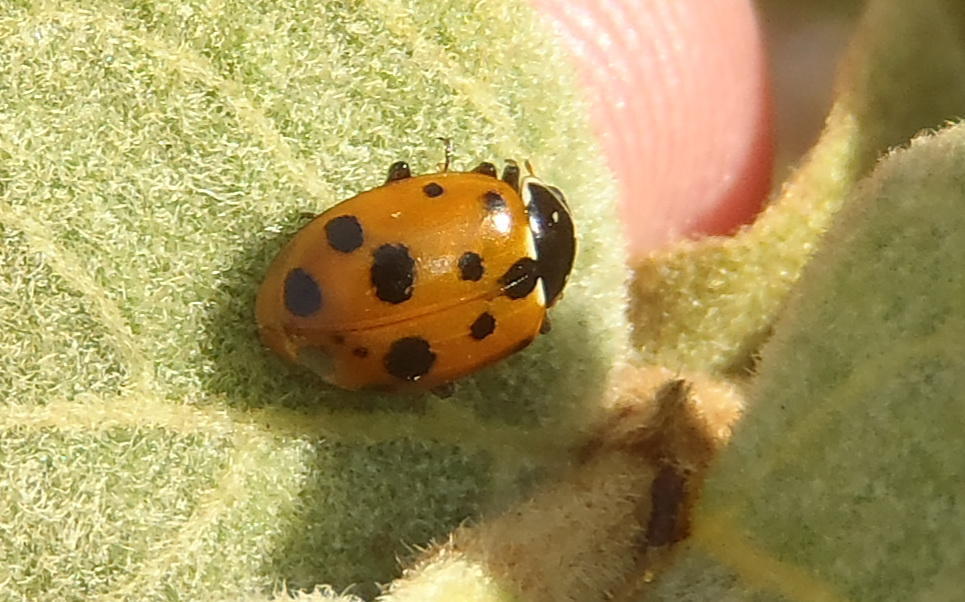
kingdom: Animalia
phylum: Arthropoda
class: Insecta
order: Coleoptera
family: Coccinellidae
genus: Hippodamia
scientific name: Hippodamia variegata
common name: Ladybird beetle
